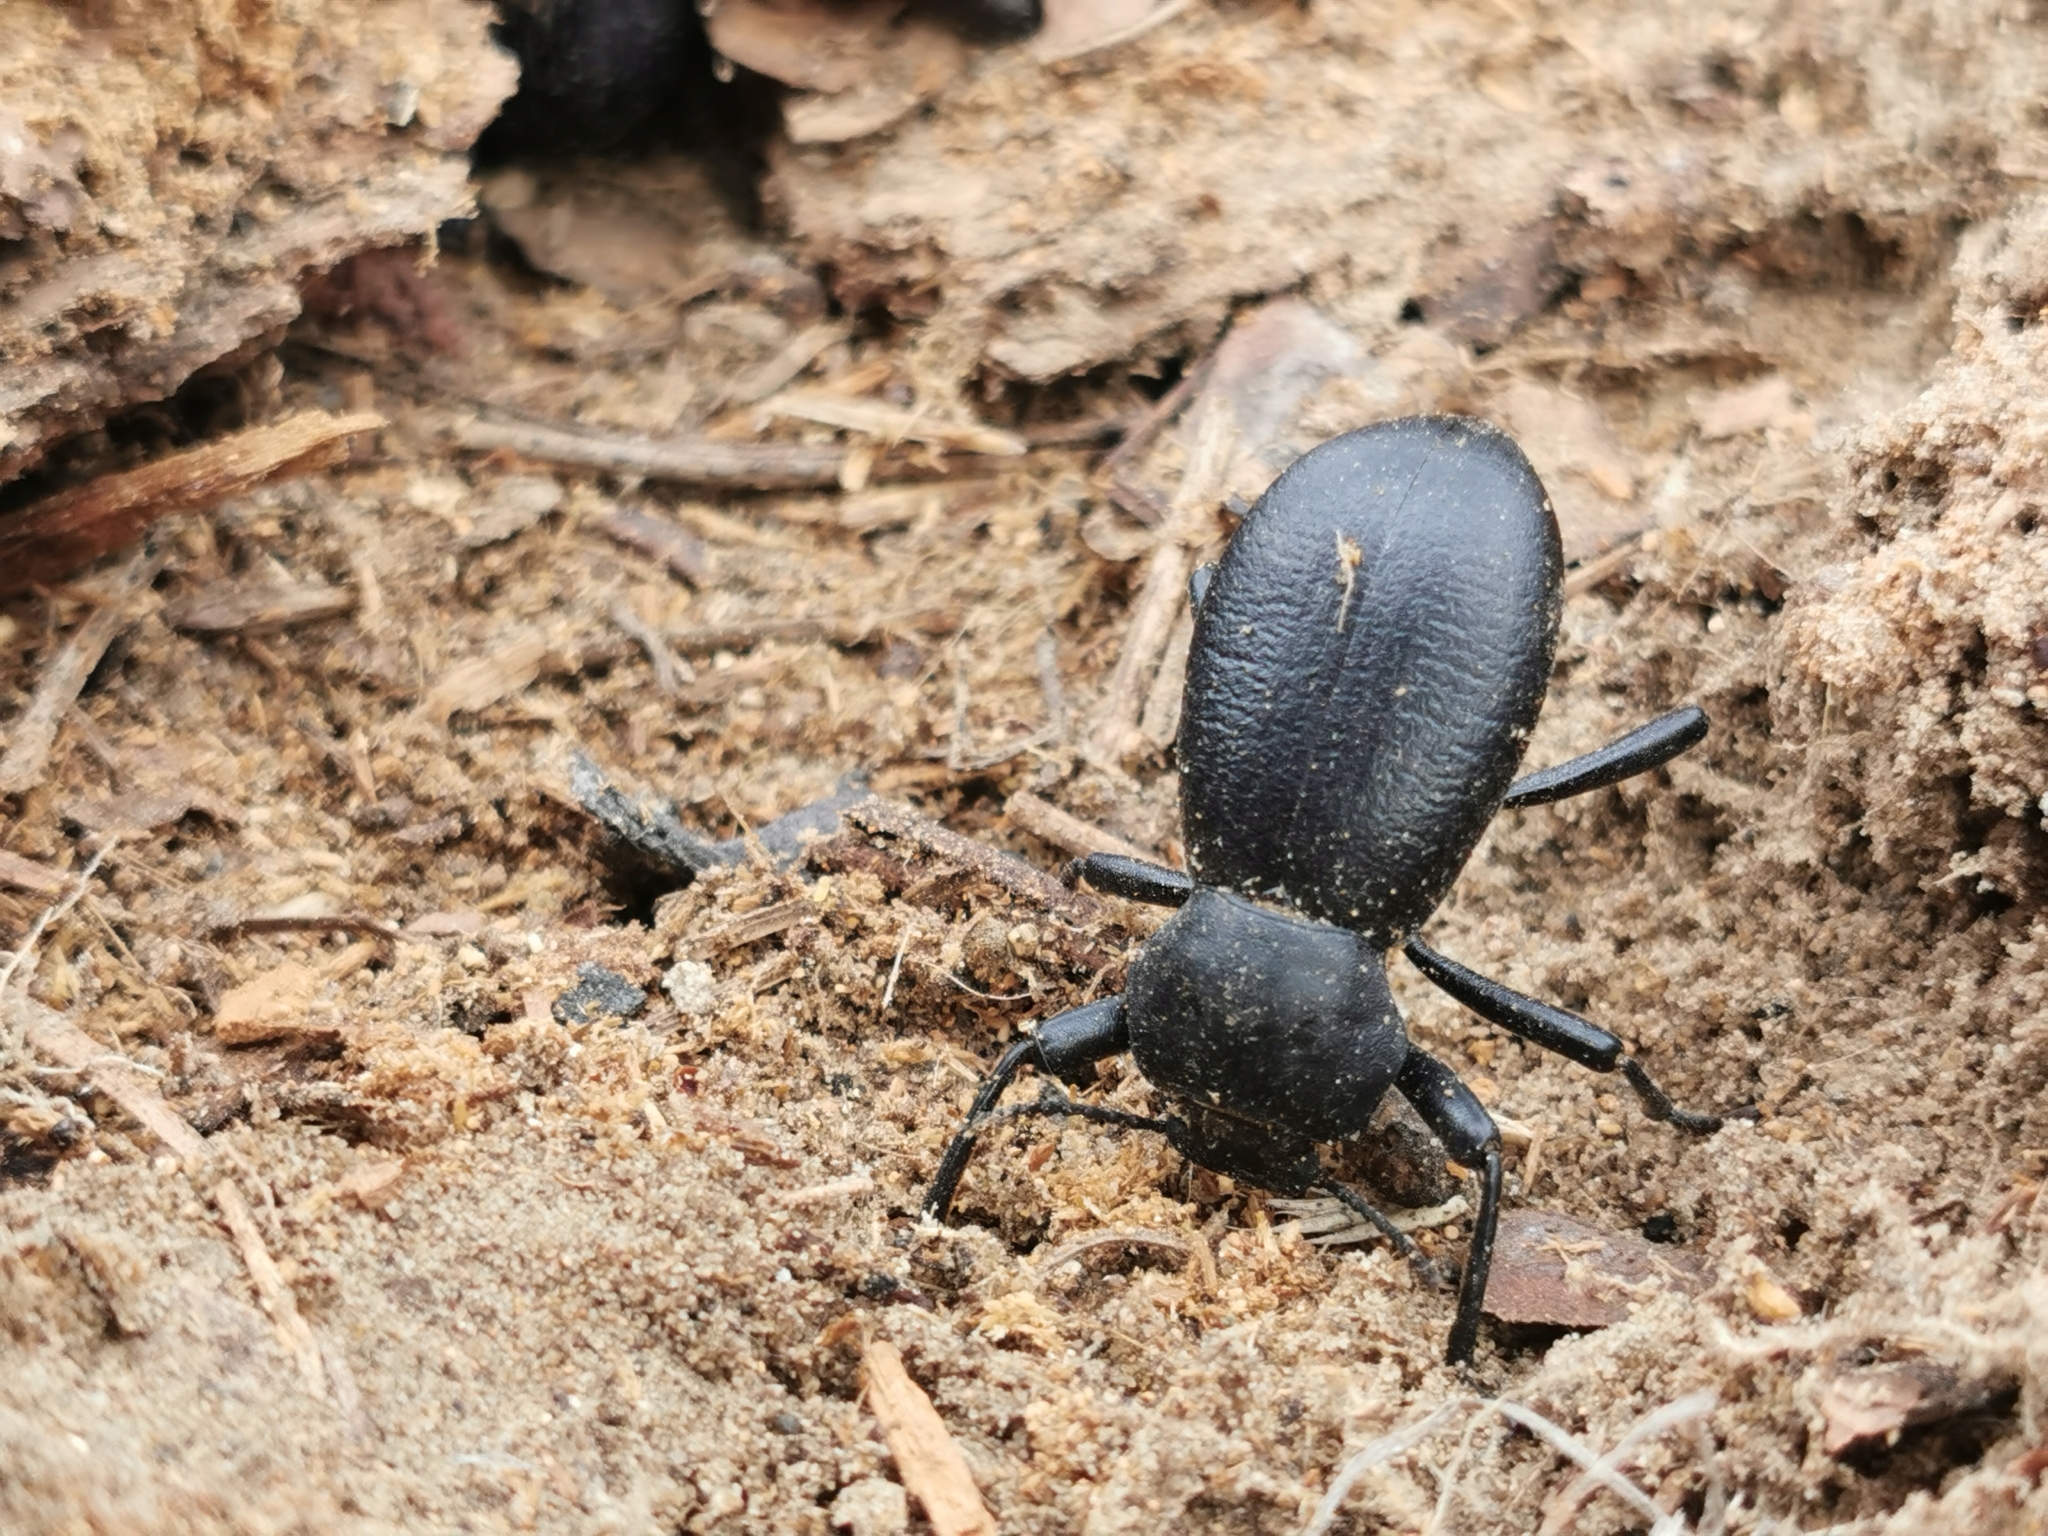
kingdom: Animalia
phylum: Arthropoda
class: Insecta
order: Coleoptera
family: Tenebrionidae
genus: Coelocnemis
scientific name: Coelocnemis dilaticollis
